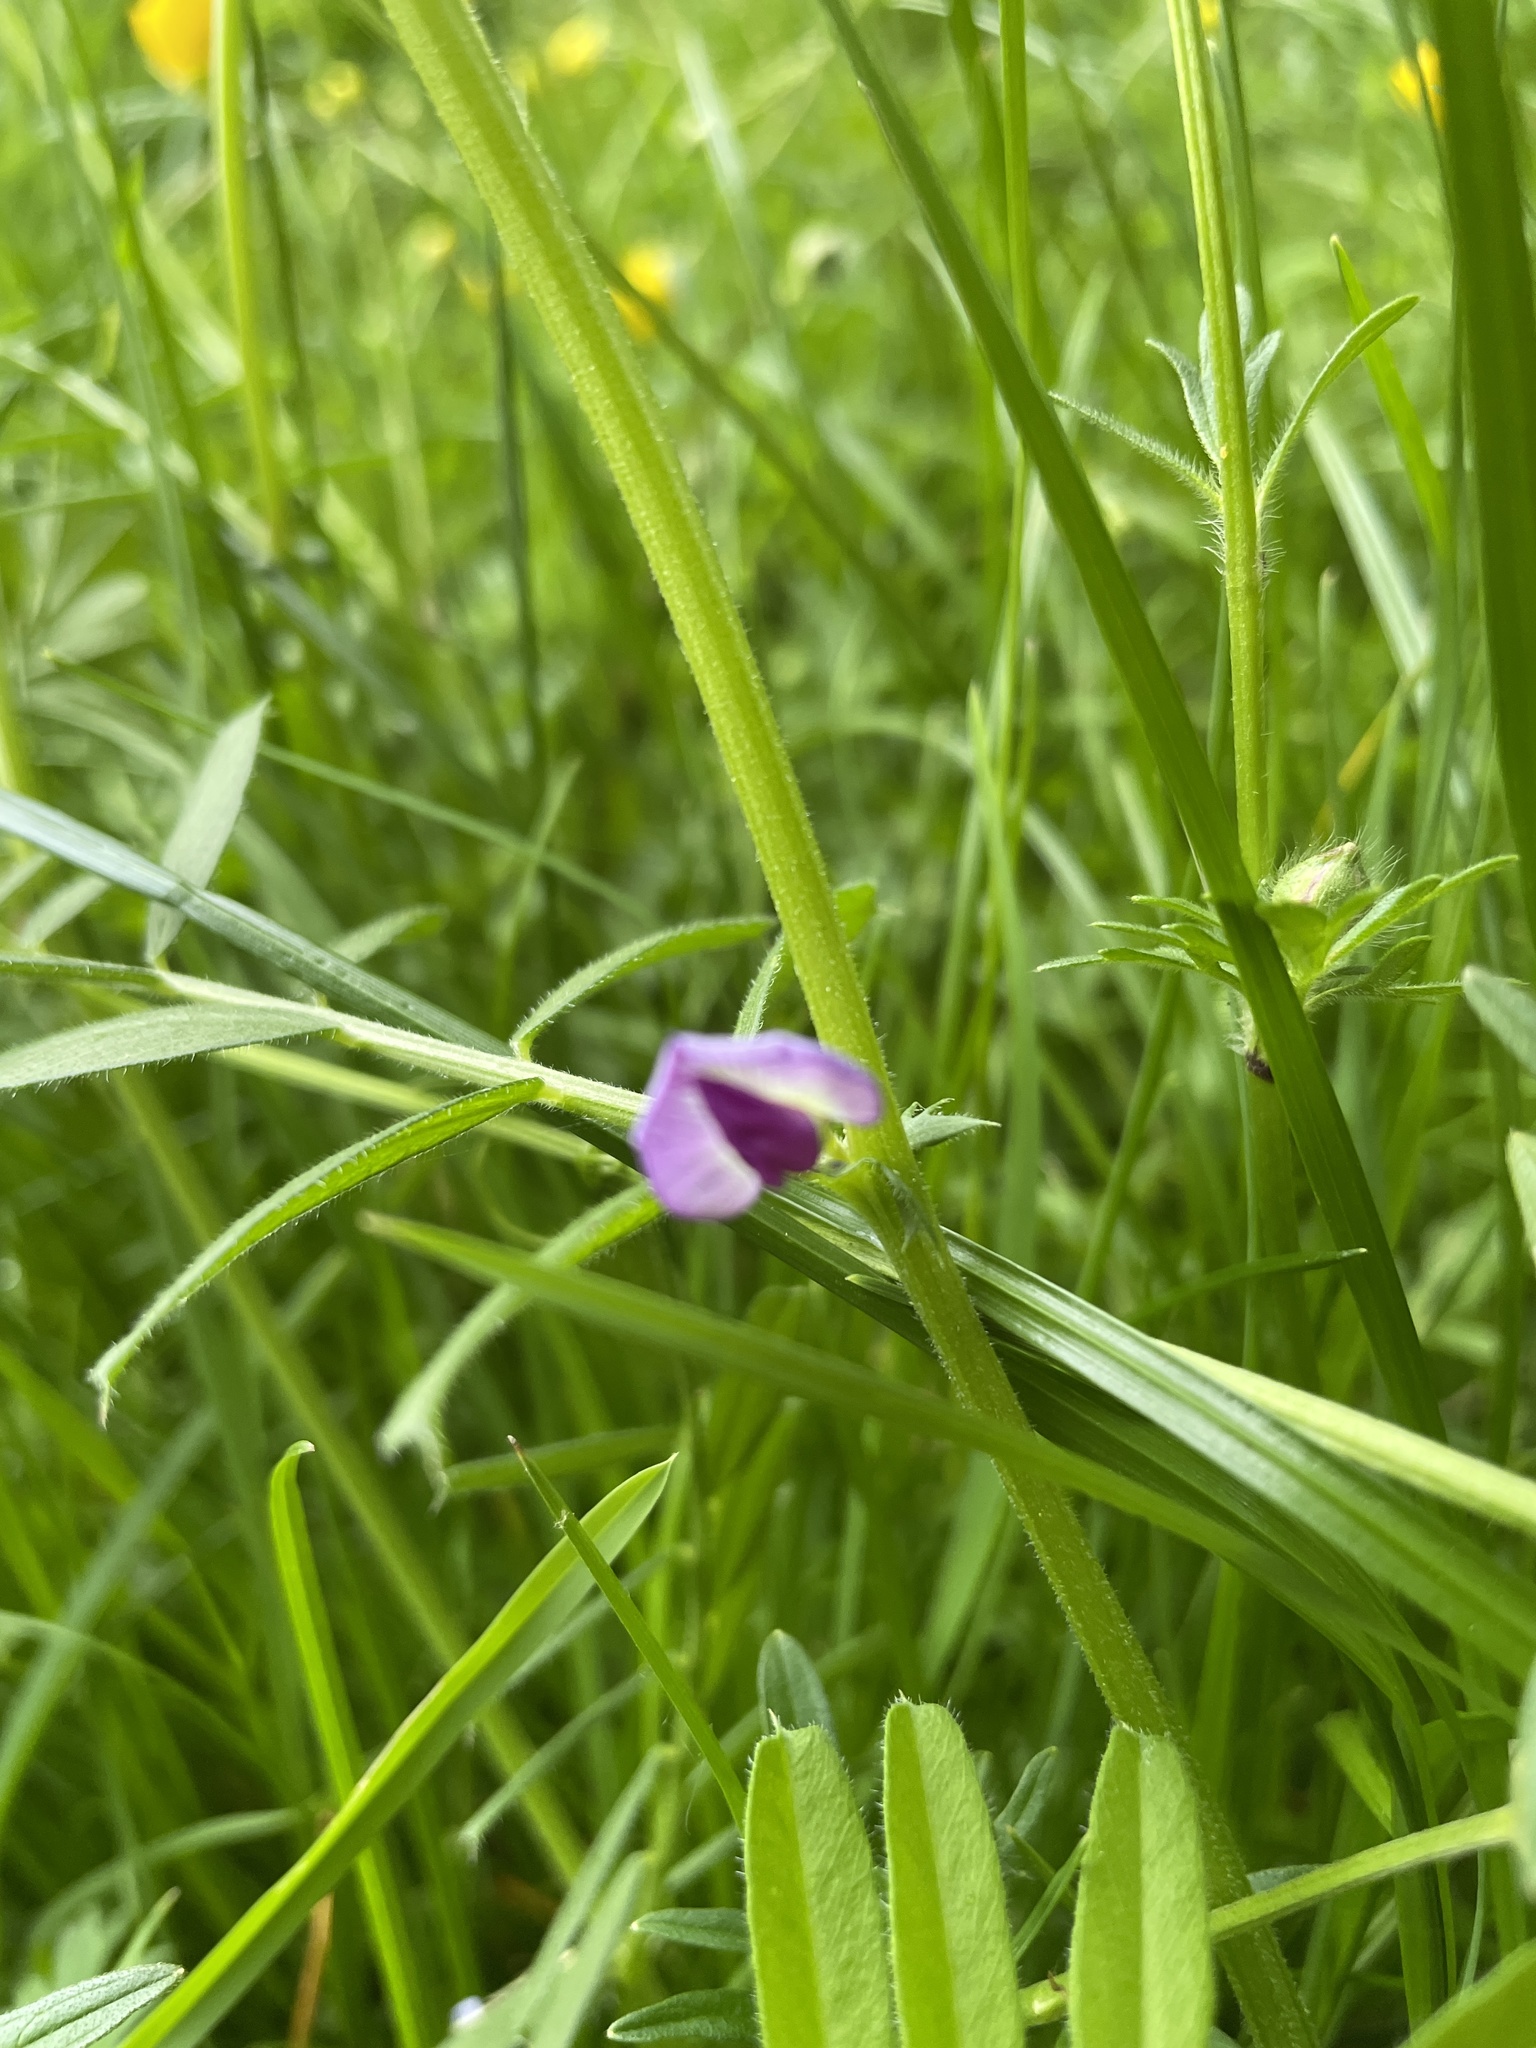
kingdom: Plantae
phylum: Tracheophyta
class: Magnoliopsida
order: Fabales
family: Fabaceae
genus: Vicia
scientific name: Vicia sativa
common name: Garden vetch
